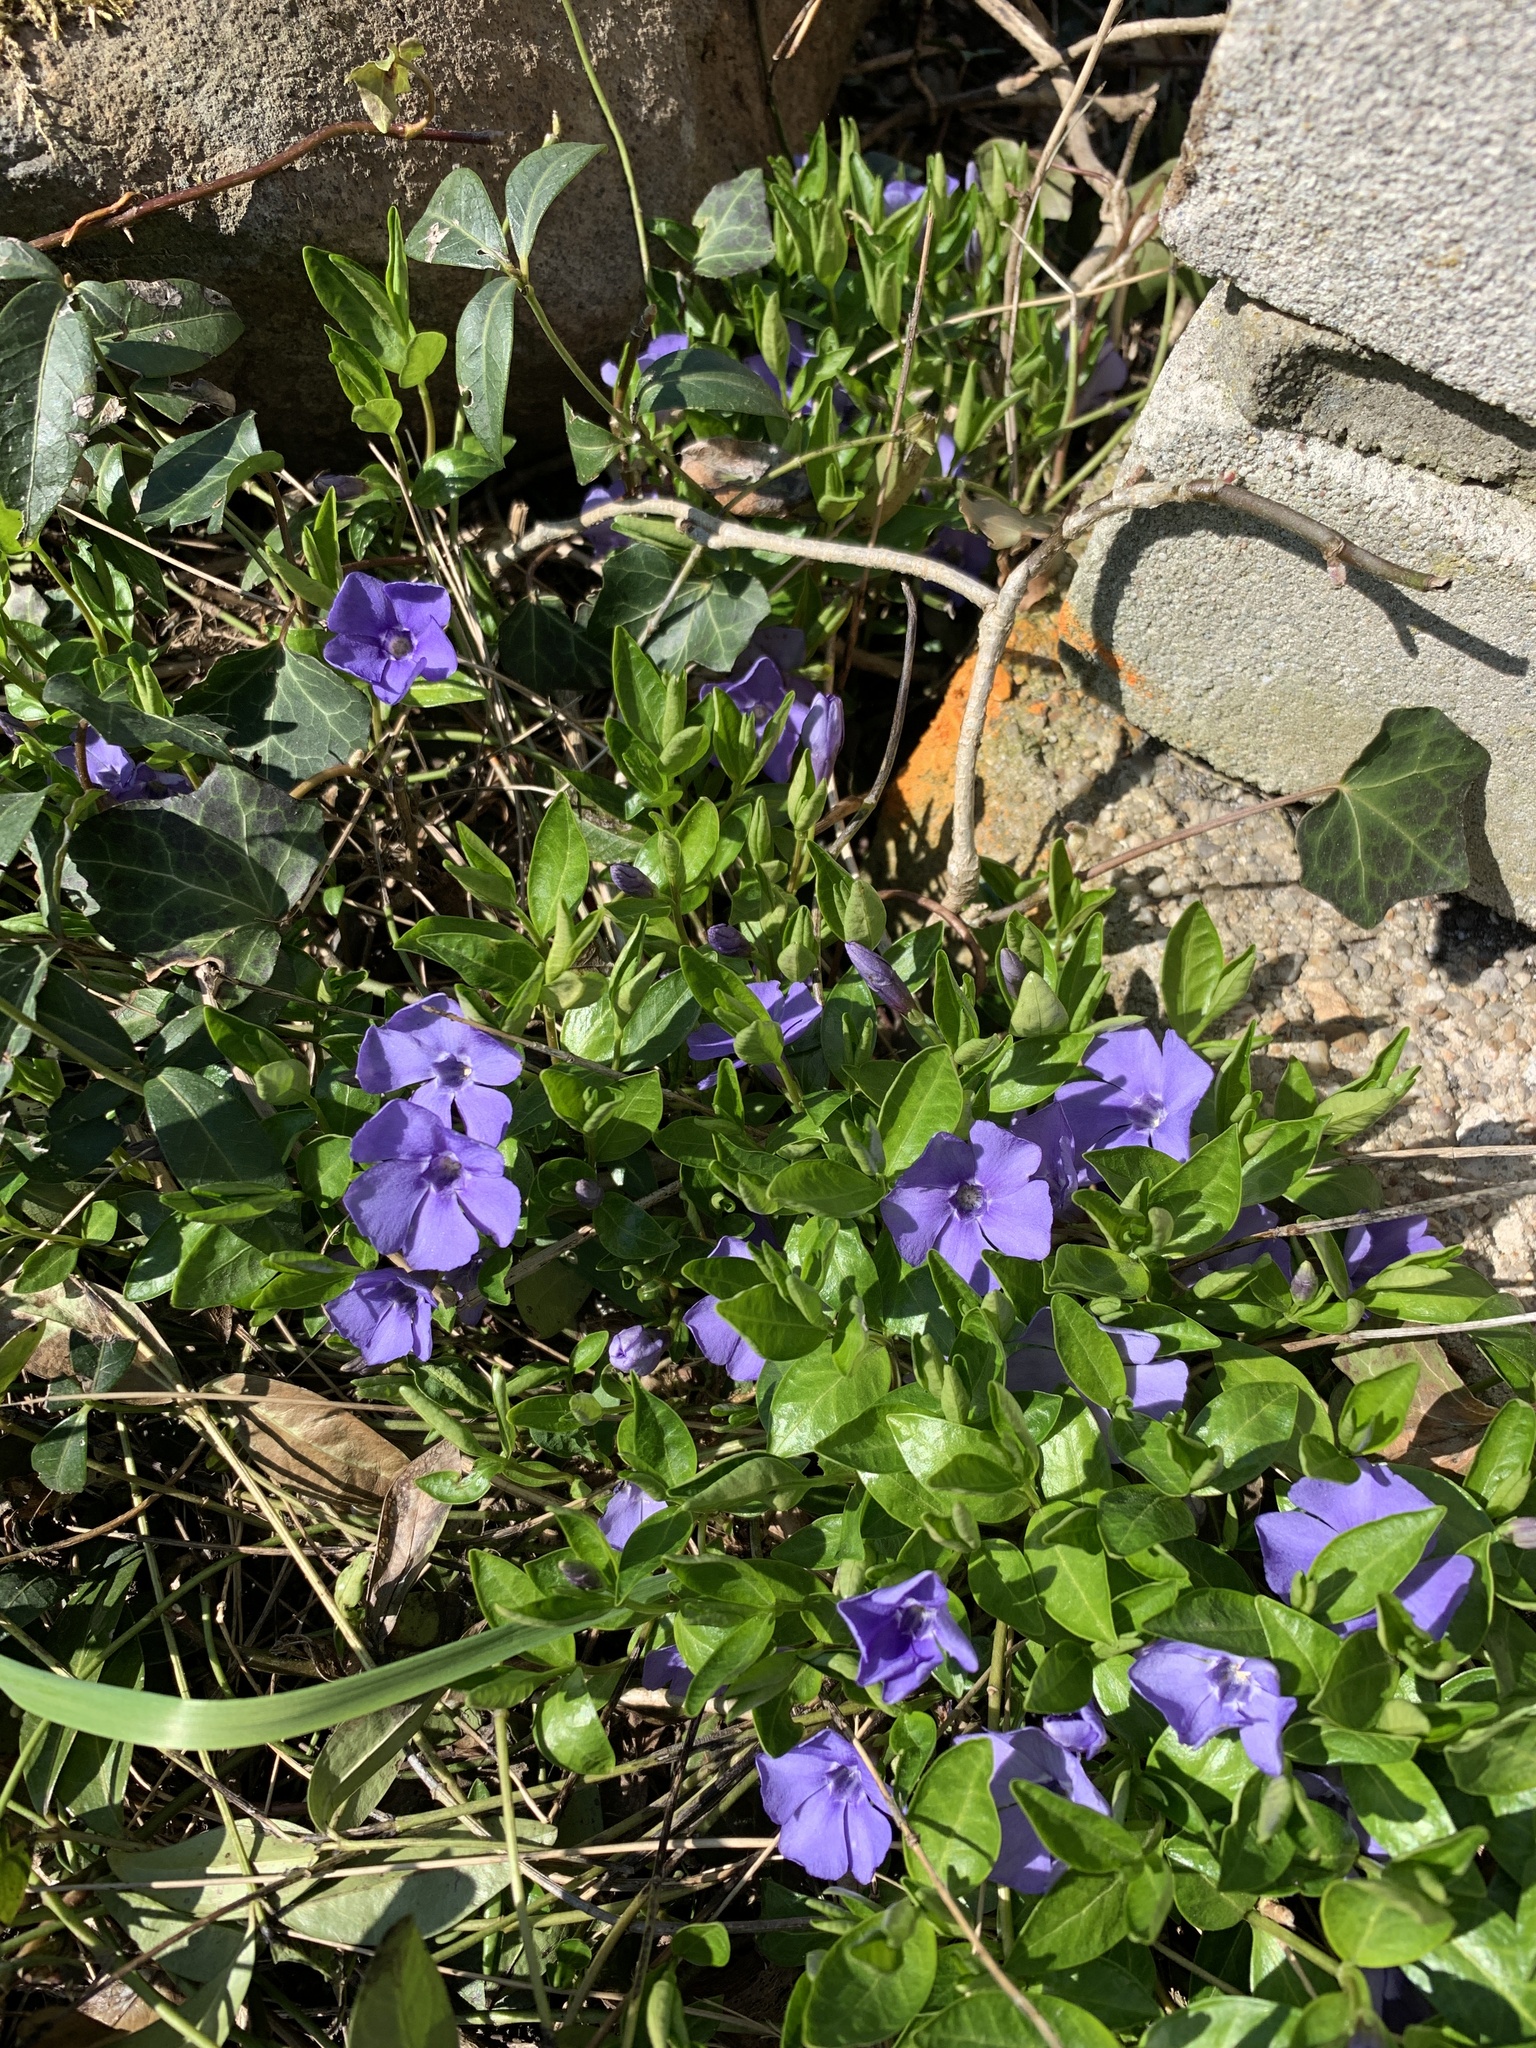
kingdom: Plantae
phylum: Tracheophyta
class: Magnoliopsida
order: Gentianales
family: Apocynaceae
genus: Vinca
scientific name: Vinca minor
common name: Lesser periwinkle
